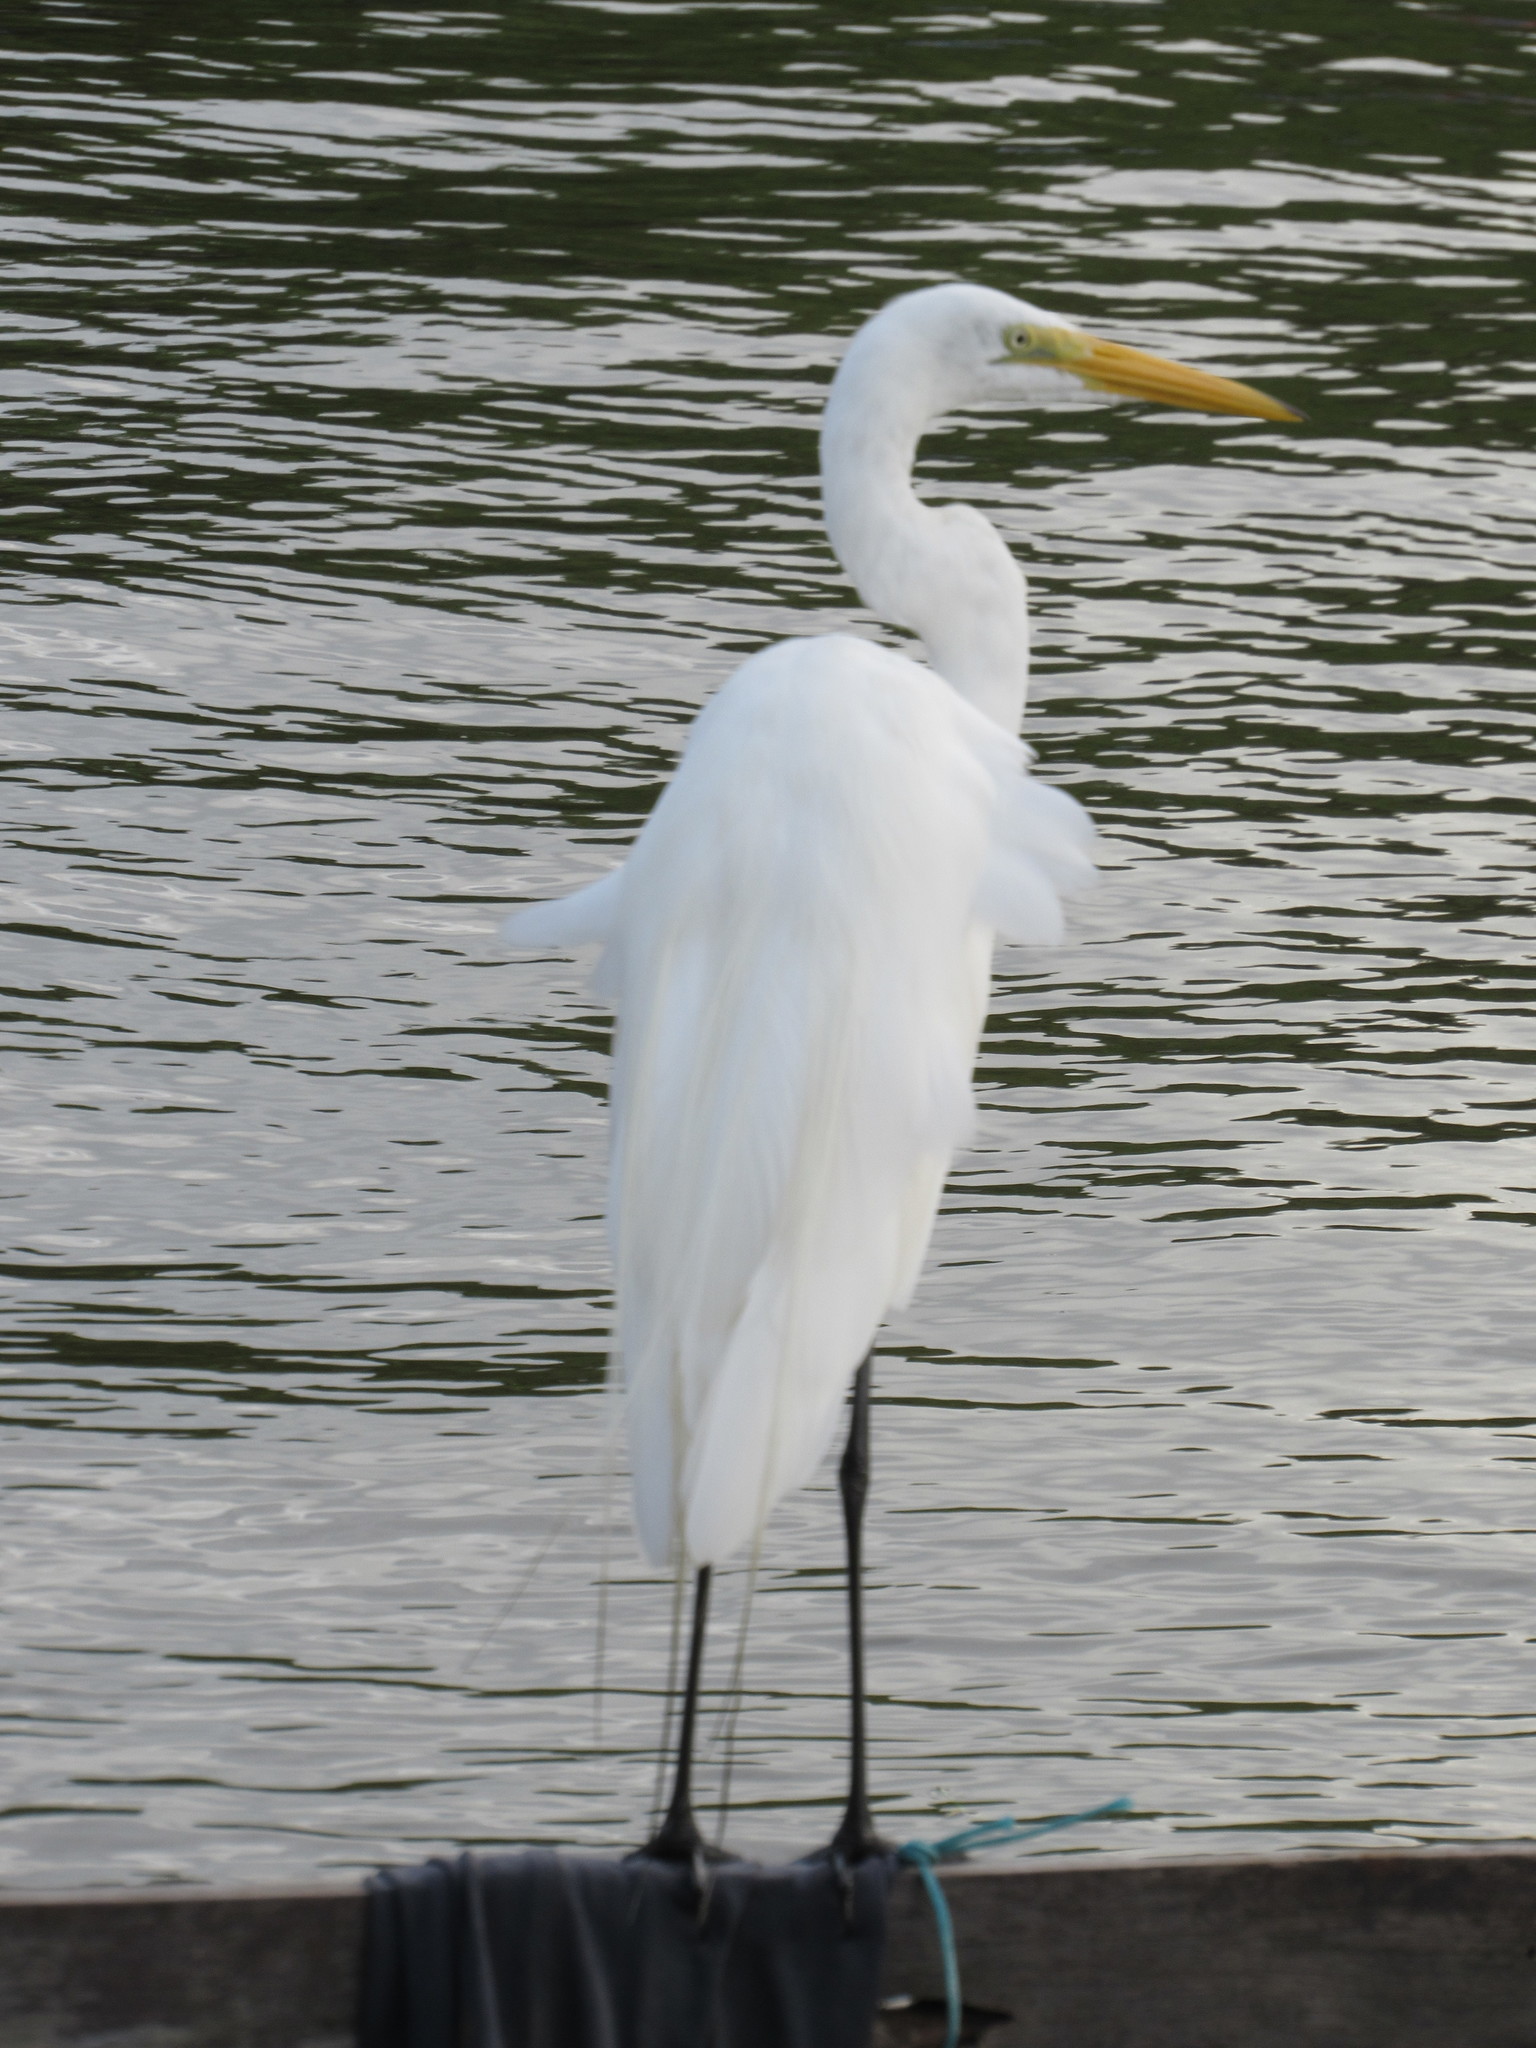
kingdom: Animalia
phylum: Chordata
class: Aves
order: Pelecaniformes
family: Ardeidae
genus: Ardea
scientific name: Ardea alba
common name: Great egret
